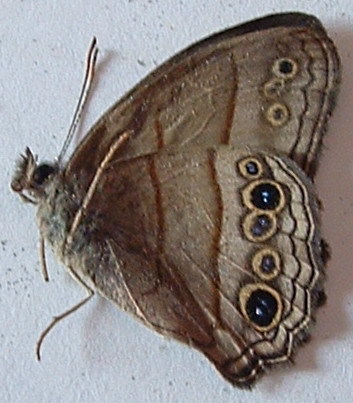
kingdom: Animalia
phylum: Arthropoda
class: Insecta
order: Lepidoptera
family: Nymphalidae
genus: Vareuptychia
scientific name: Vareuptychia similis
